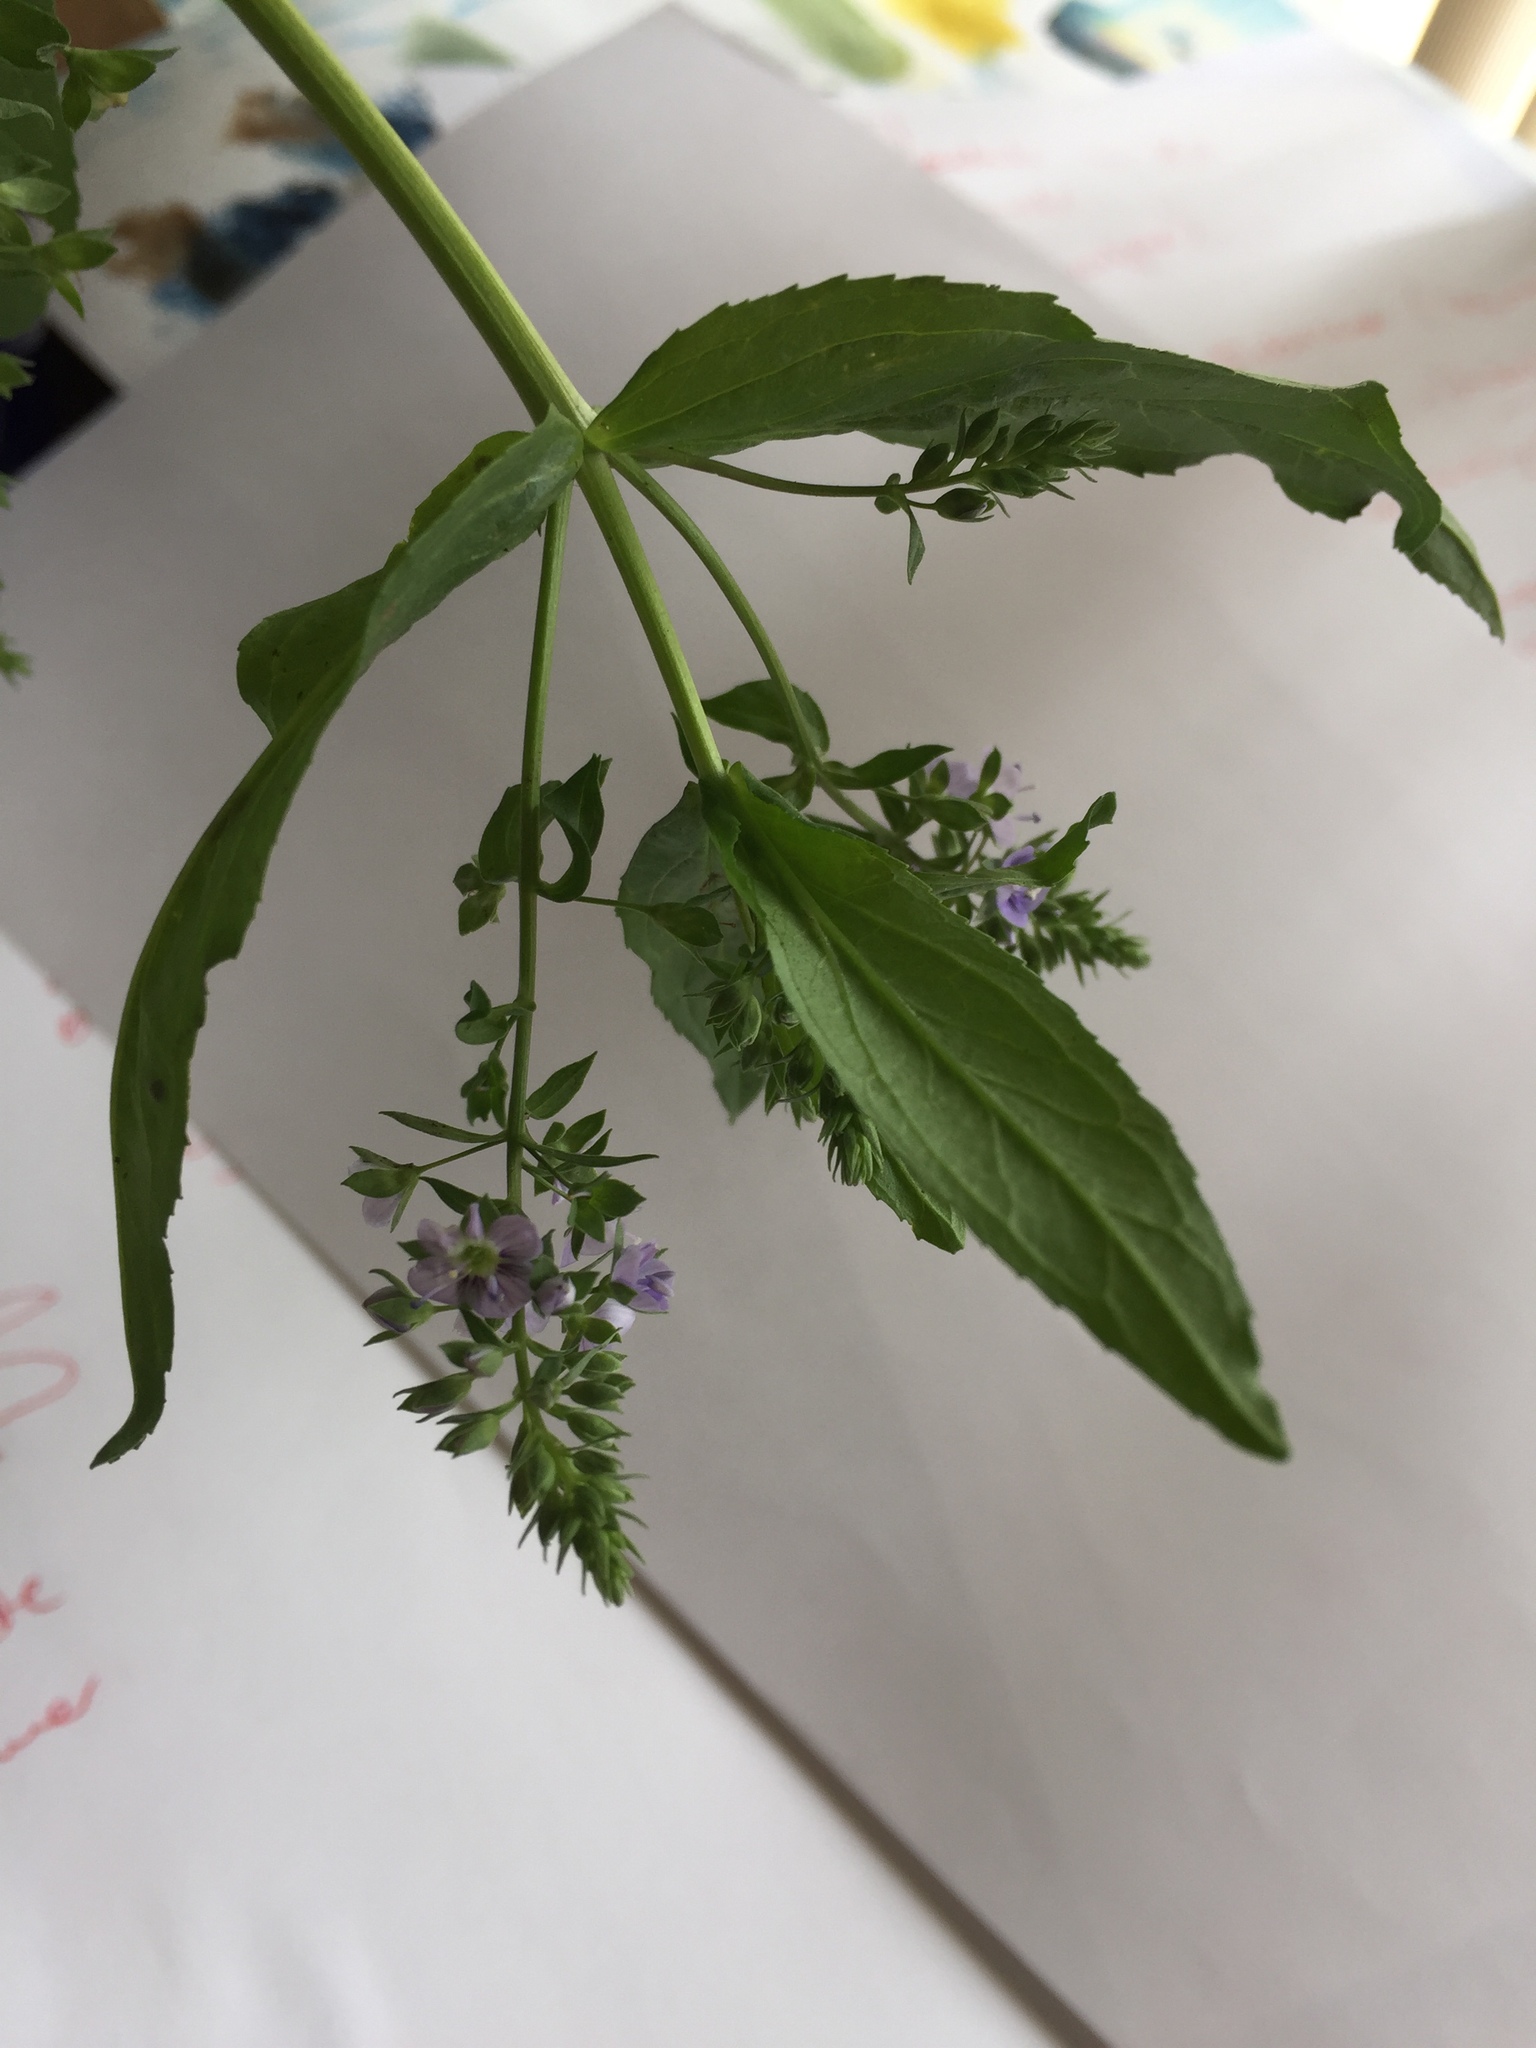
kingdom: Plantae
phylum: Tracheophyta
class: Magnoliopsida
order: Lamiales
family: Plantaginaceae
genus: Veronica
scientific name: Veronica anagallis-aquatica
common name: Water speedwell
